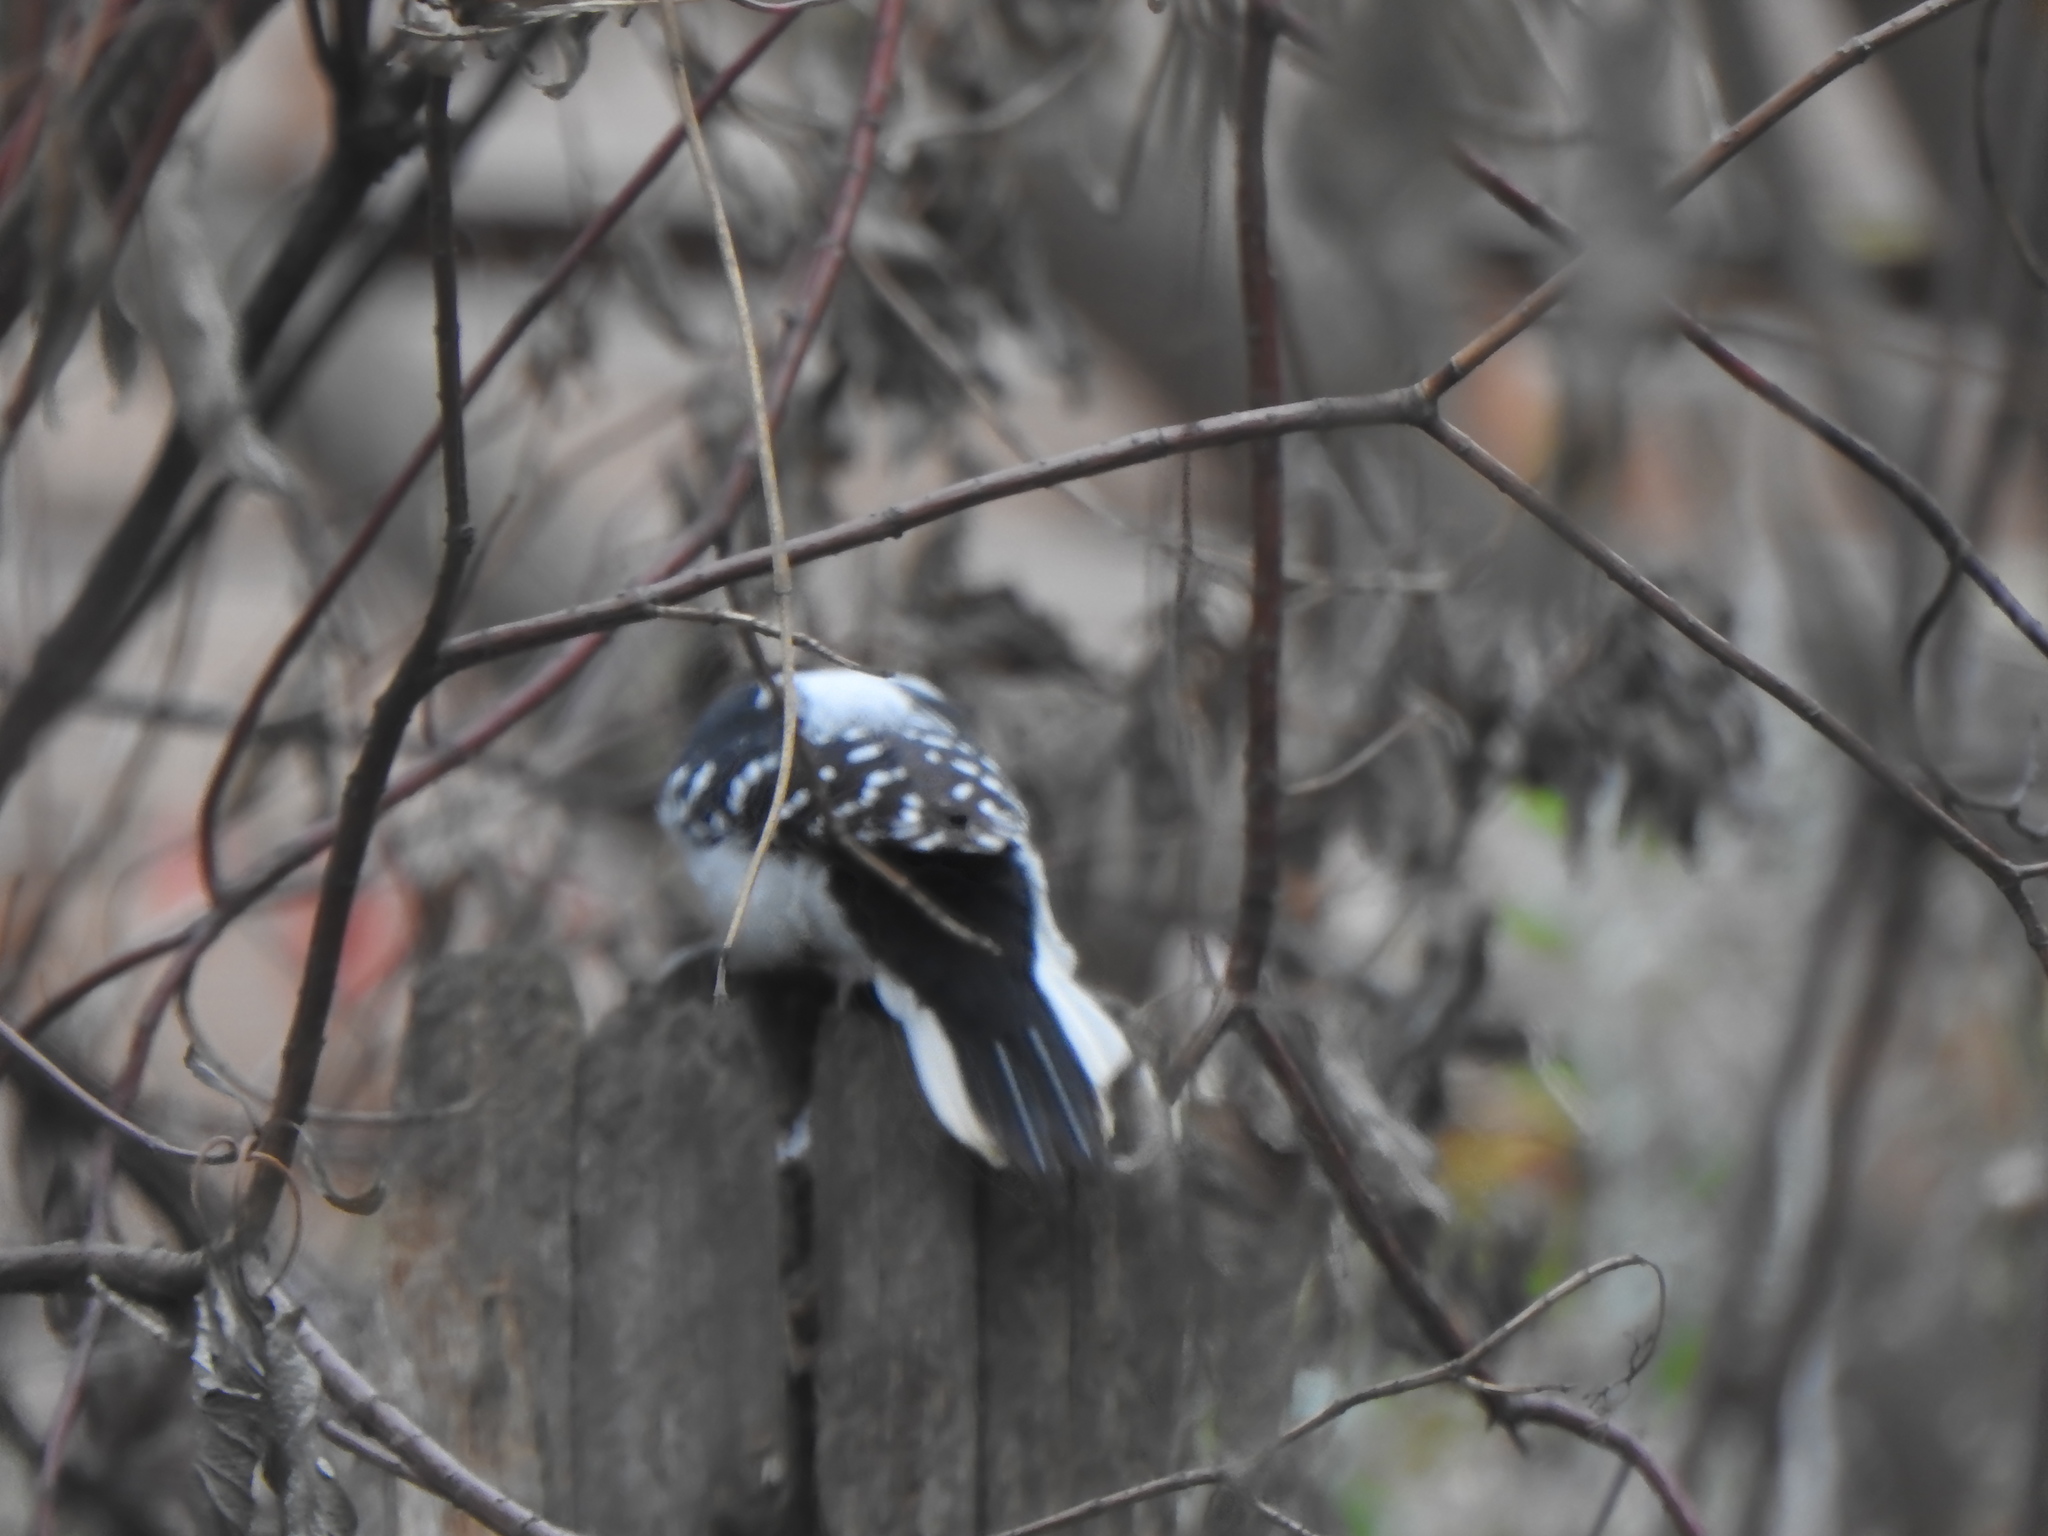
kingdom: Animalia
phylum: Chordata
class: Aves
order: Piciformes
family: Picidae
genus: Leuconotopicus
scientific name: Leuconotopicus villosus
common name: Hairy woodpecker
